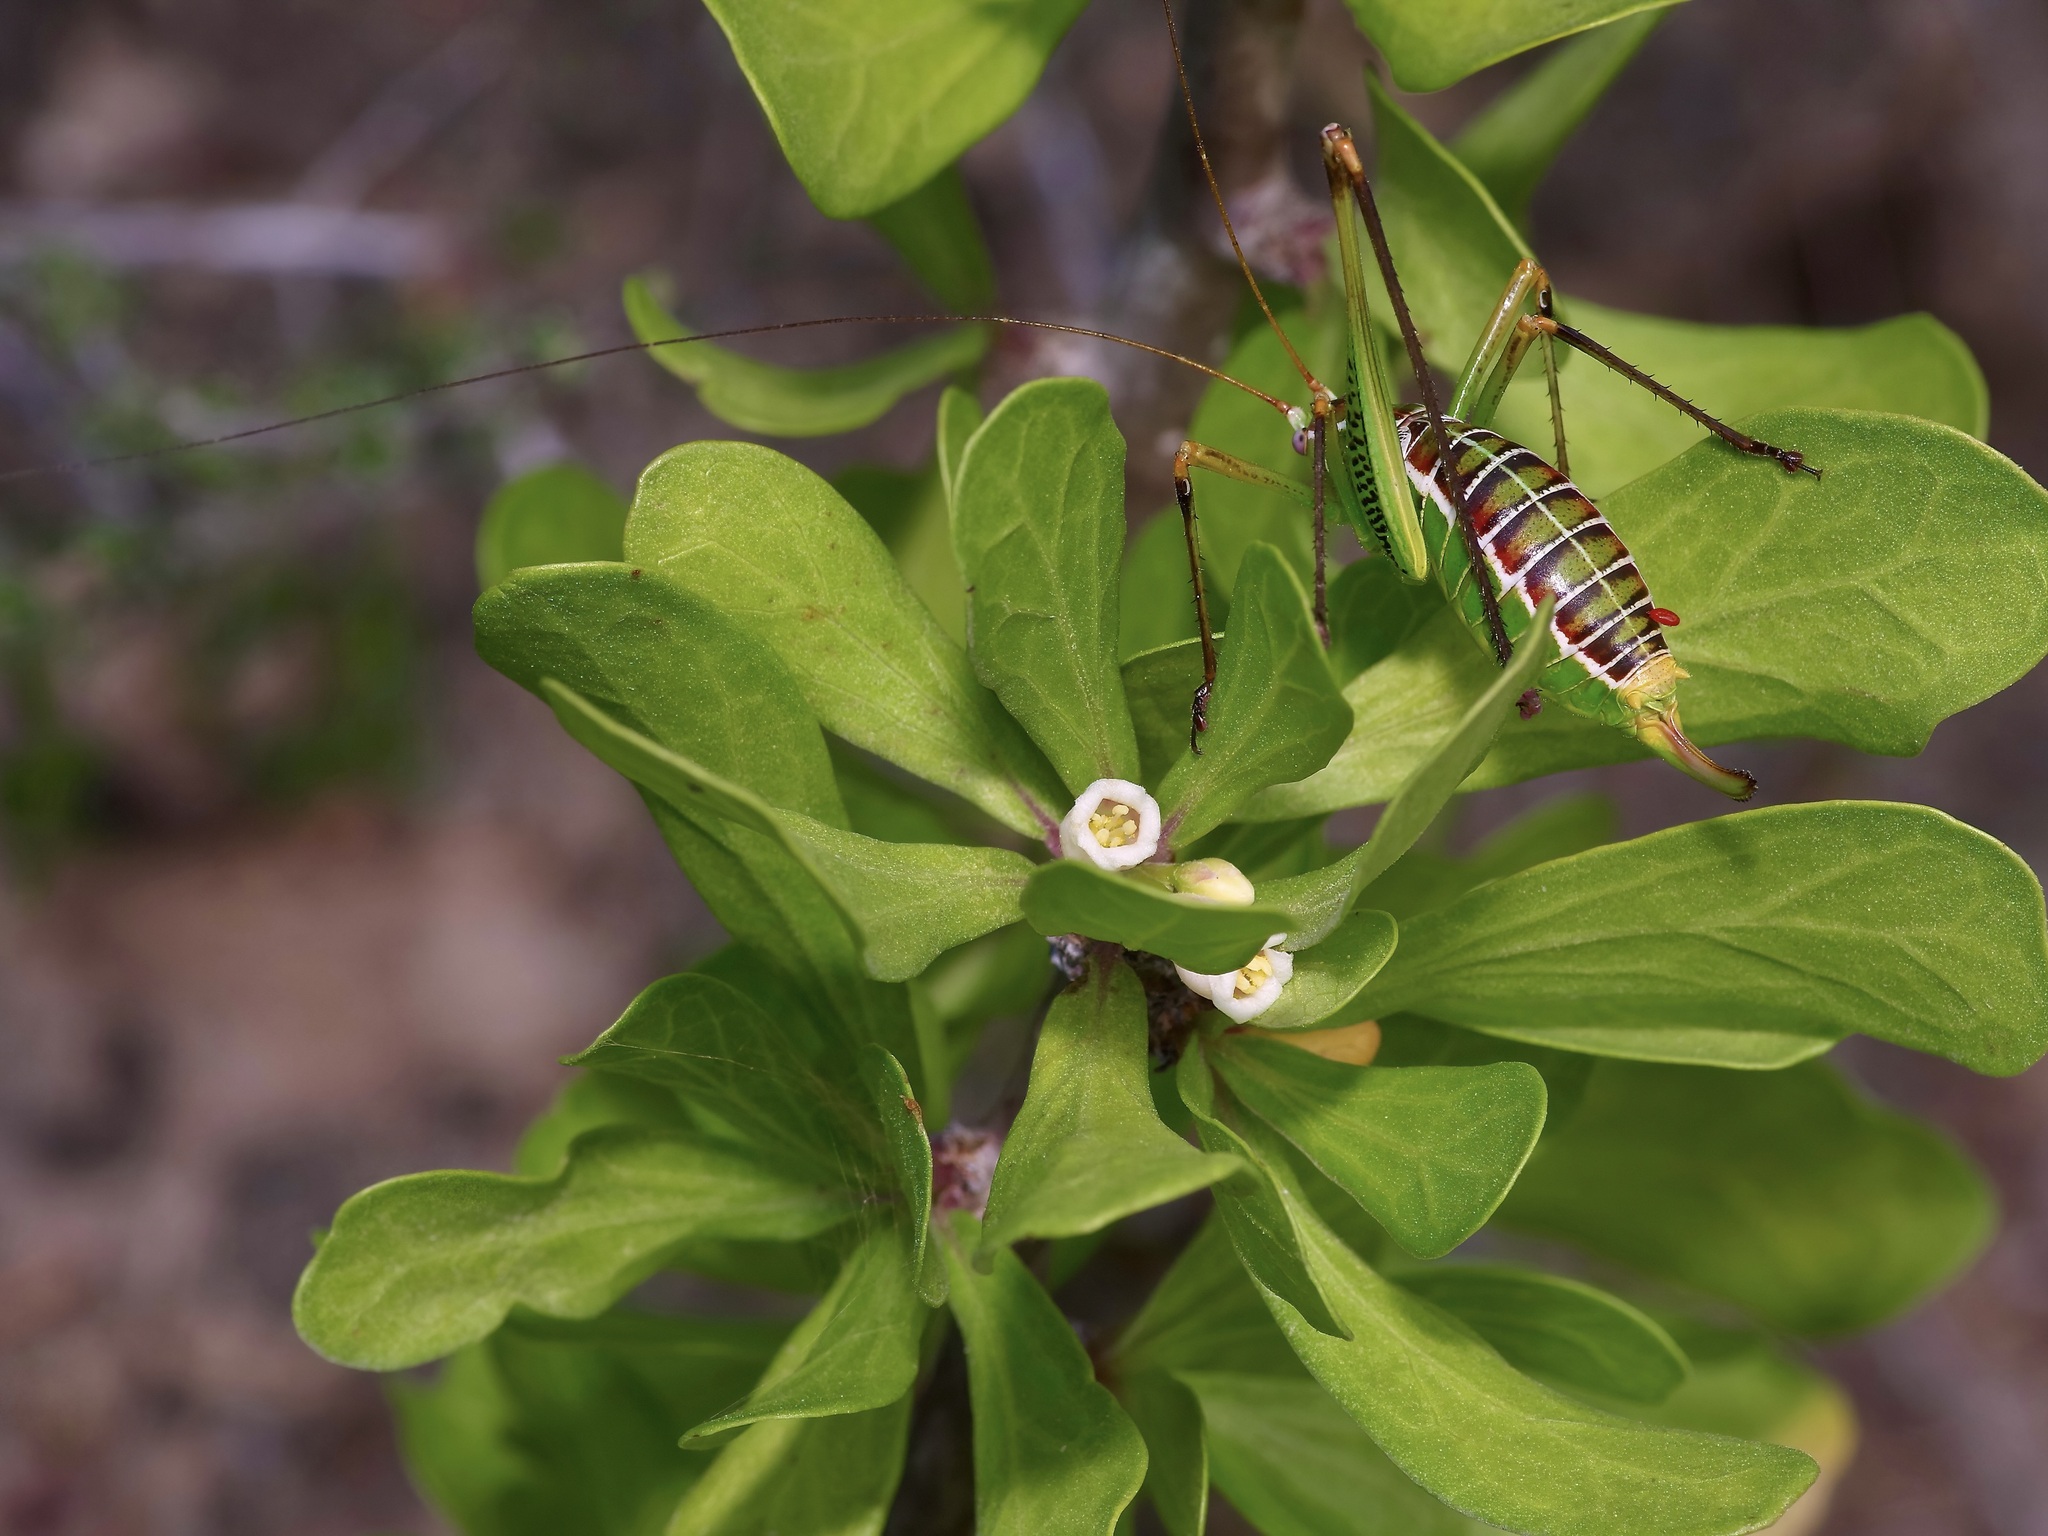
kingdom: Plantae
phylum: Tracheophyta
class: Magnoliopsida
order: Malpighiales
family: Euphorbiaceae
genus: Jatropha
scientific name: Jatropha dioica
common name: Leatherstem
